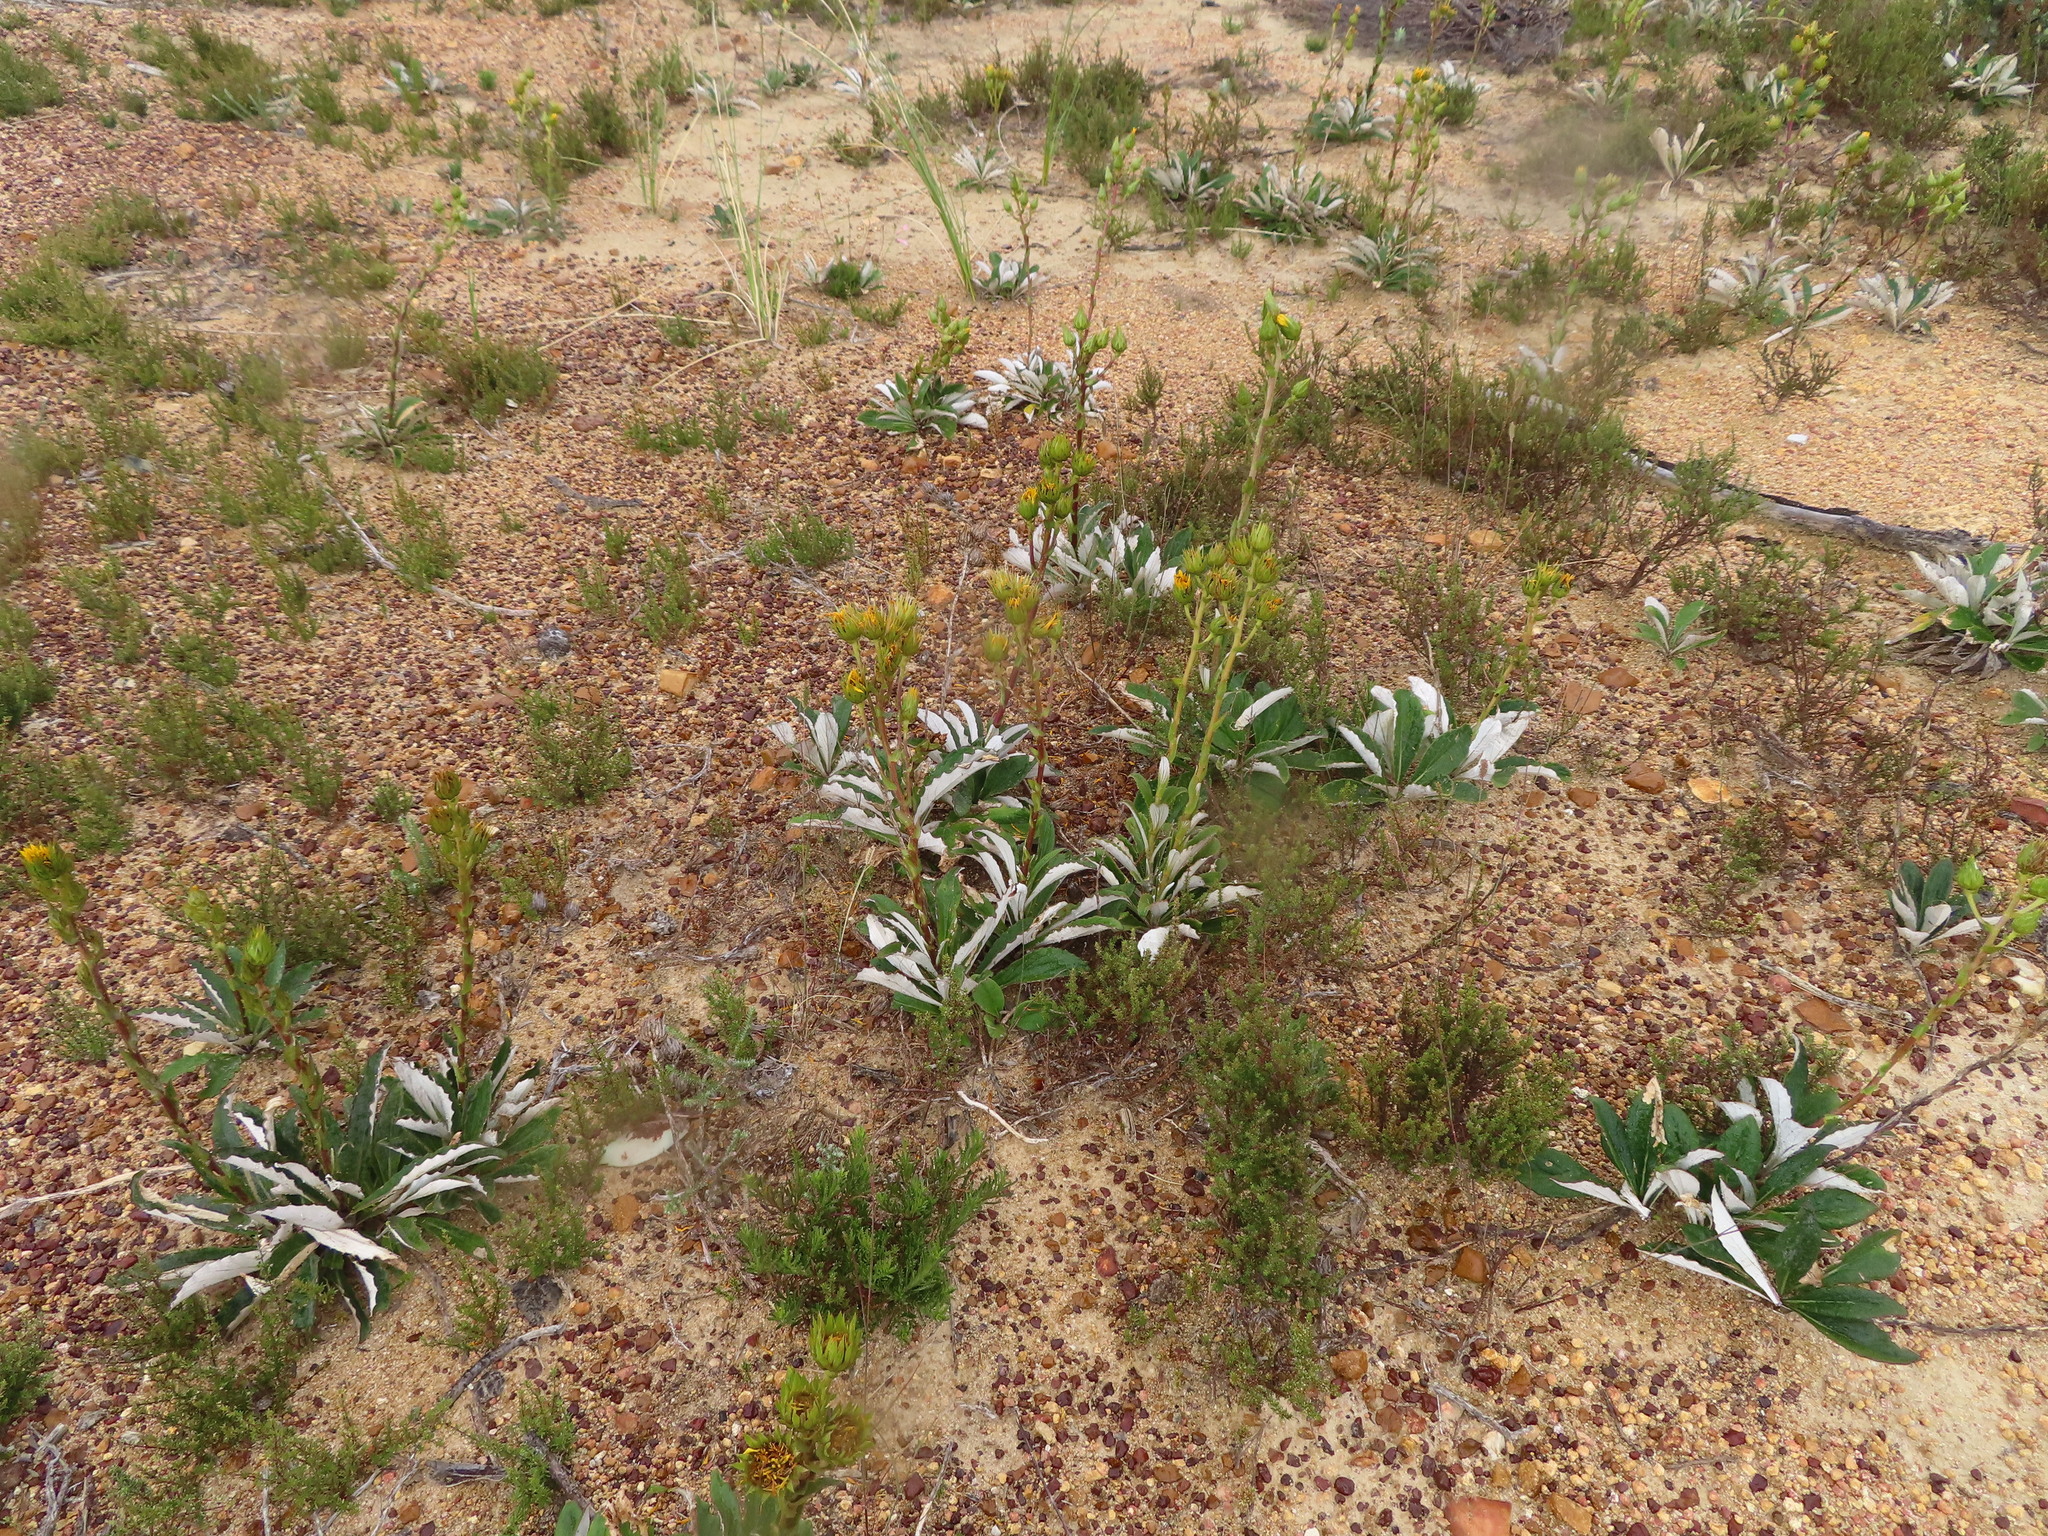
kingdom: Plantae
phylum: Tracheophyta
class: Magnoliopsida
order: Asterales
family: Asteraceae
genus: Berkheya
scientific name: Berkheya herbacea
